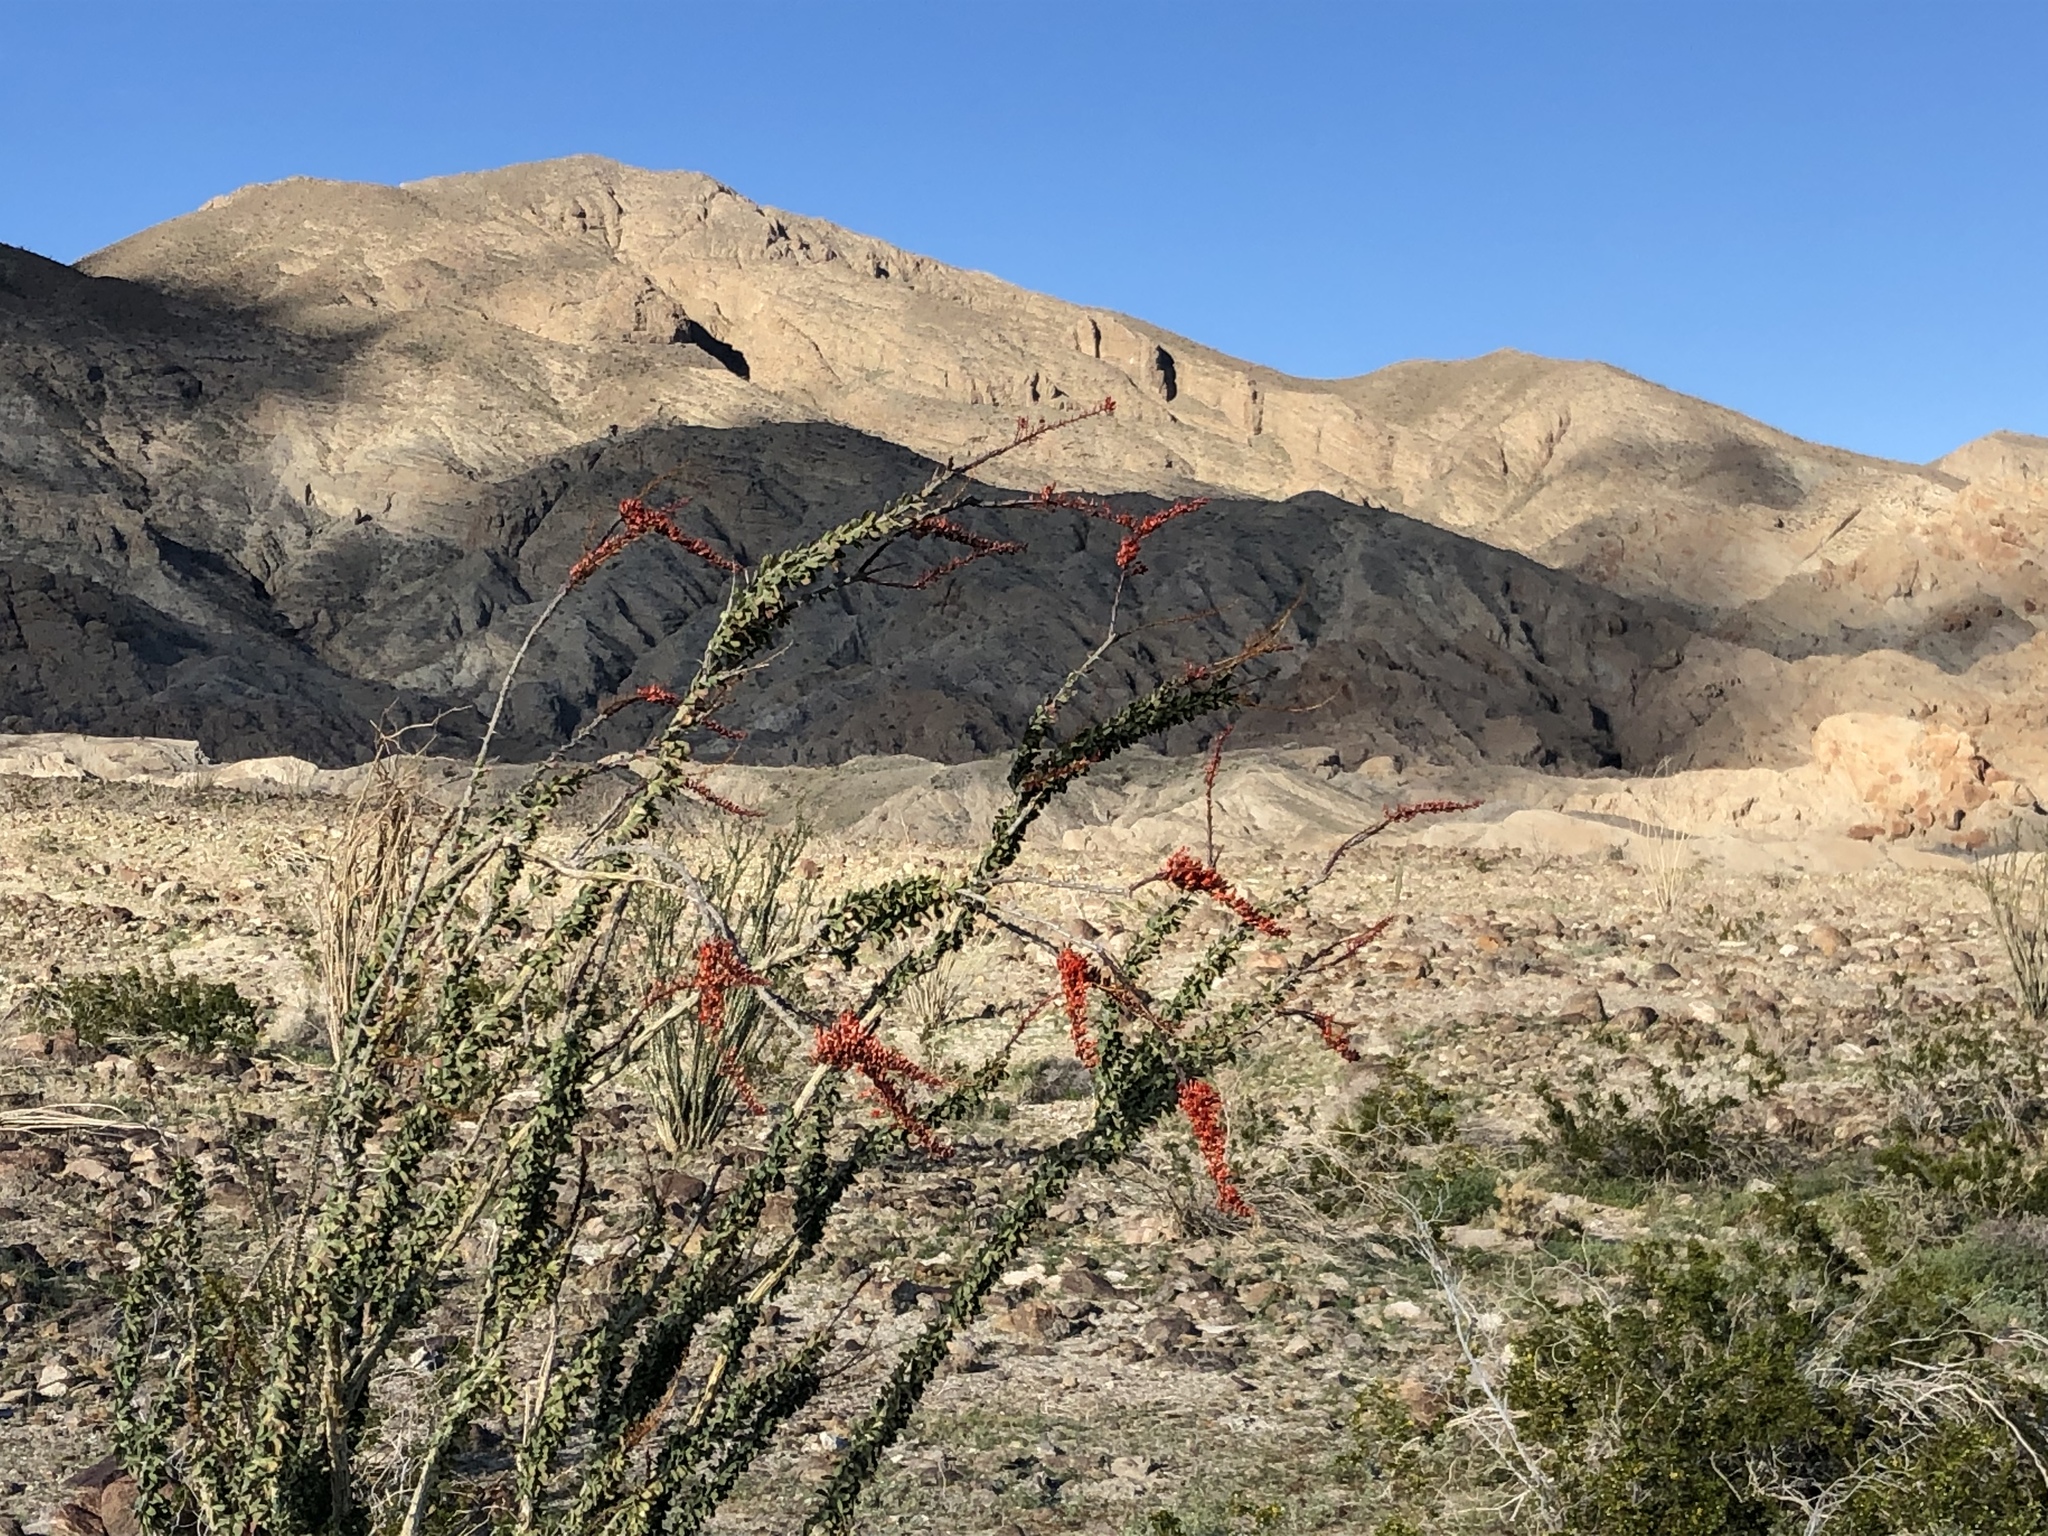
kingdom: Plantae
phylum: Tracheophyta
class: Magnoliopsida
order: Ericales
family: Fouquieriaceae
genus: Fouquieria
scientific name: Fouquieria splendens
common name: Vine-cactus
